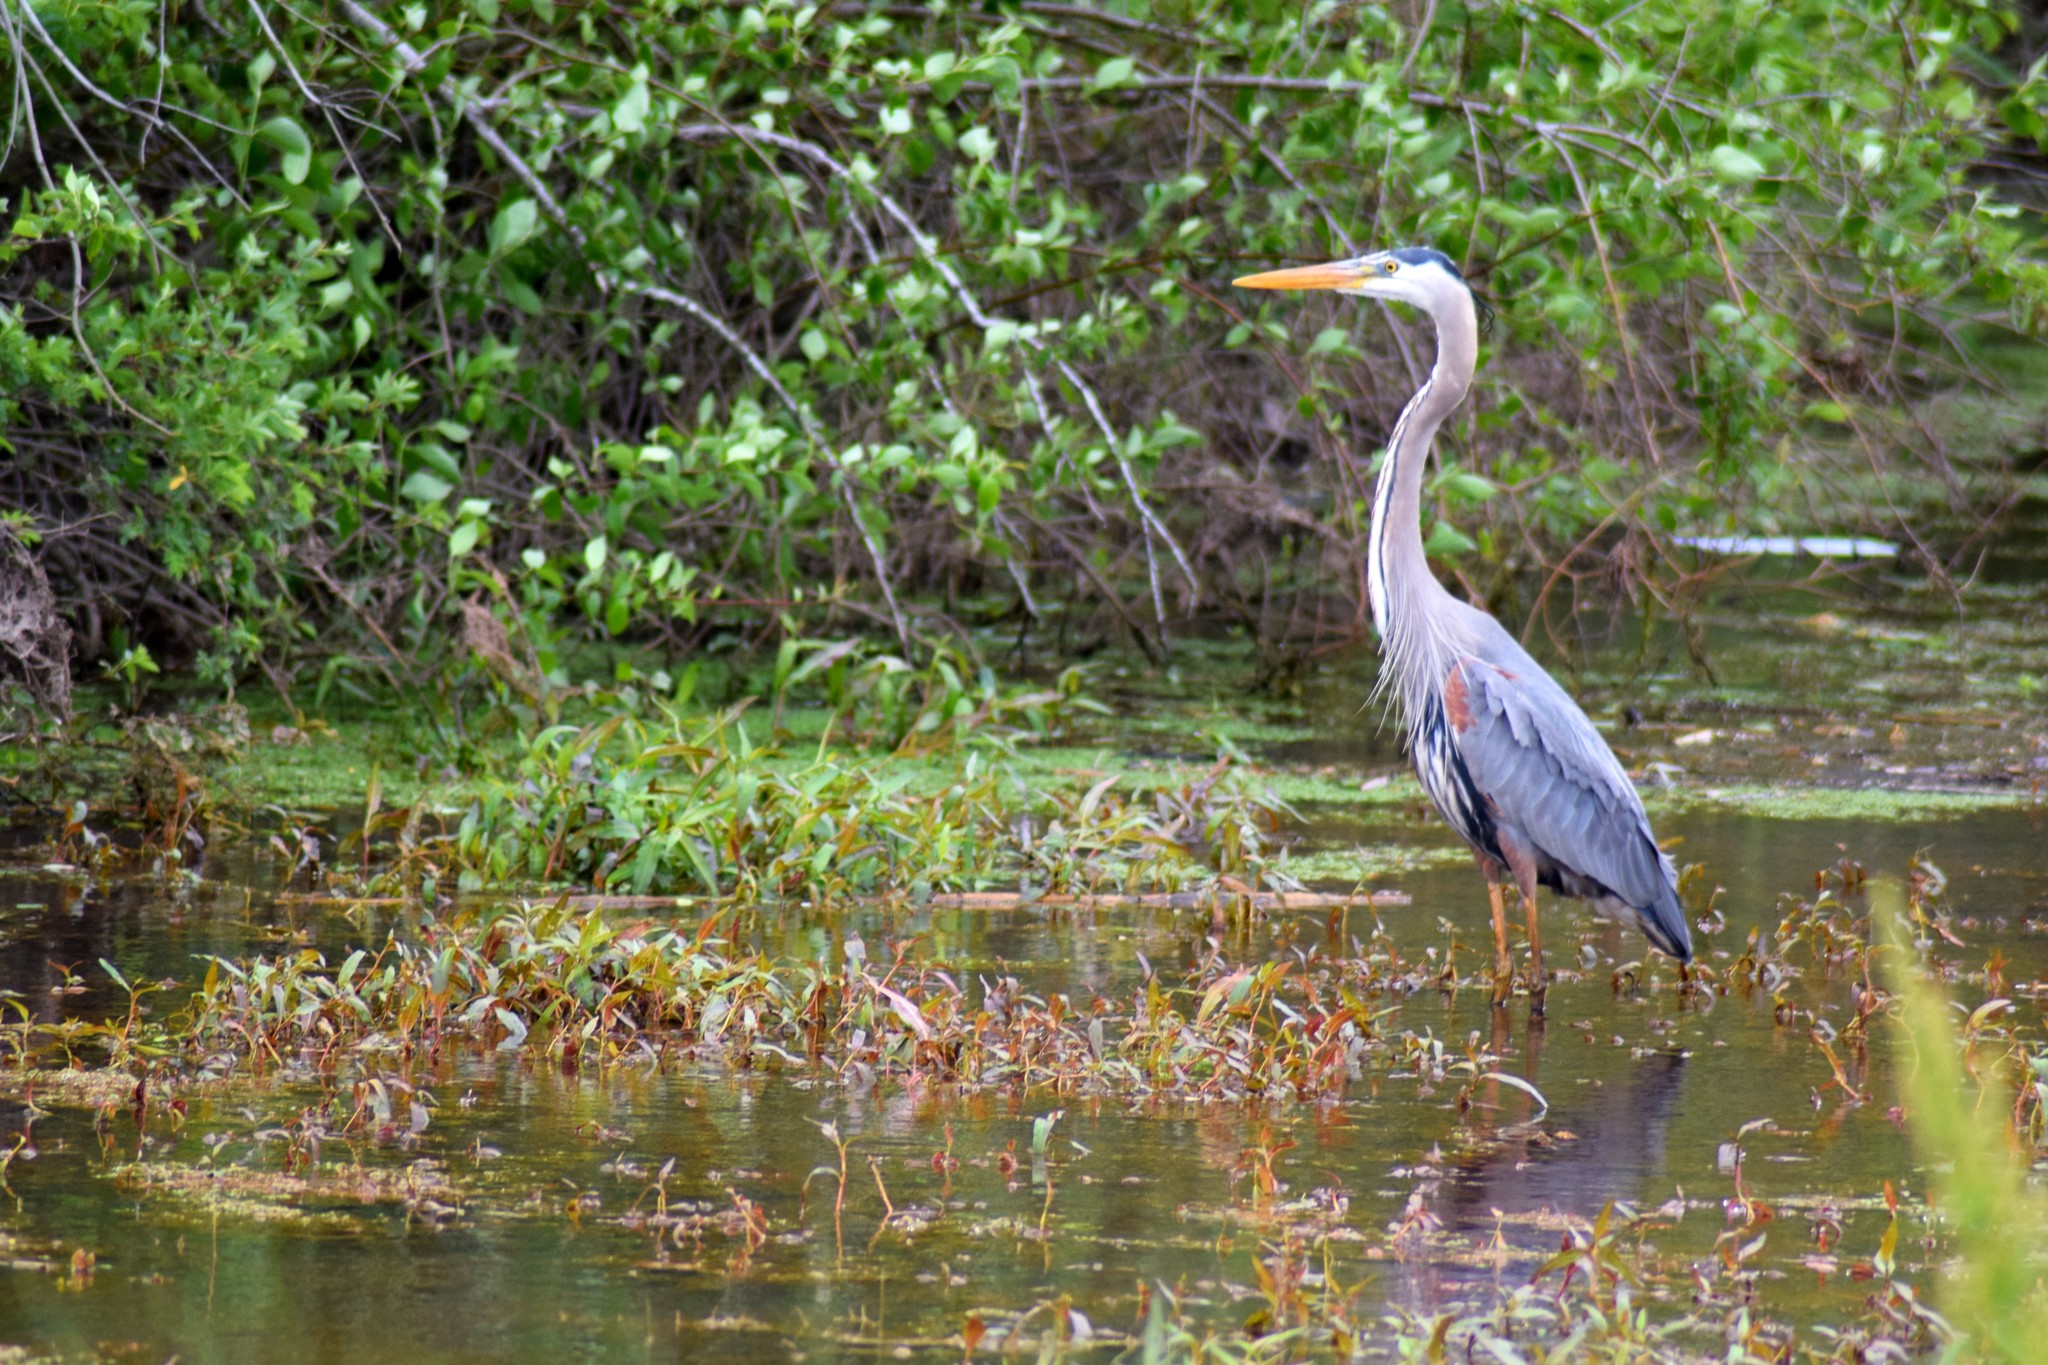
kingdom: Animalia
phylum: Chordata
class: Aves
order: Pelecaniformes
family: Ardeidae
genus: Ardea
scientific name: Ardea herodias
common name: Great blue heron
